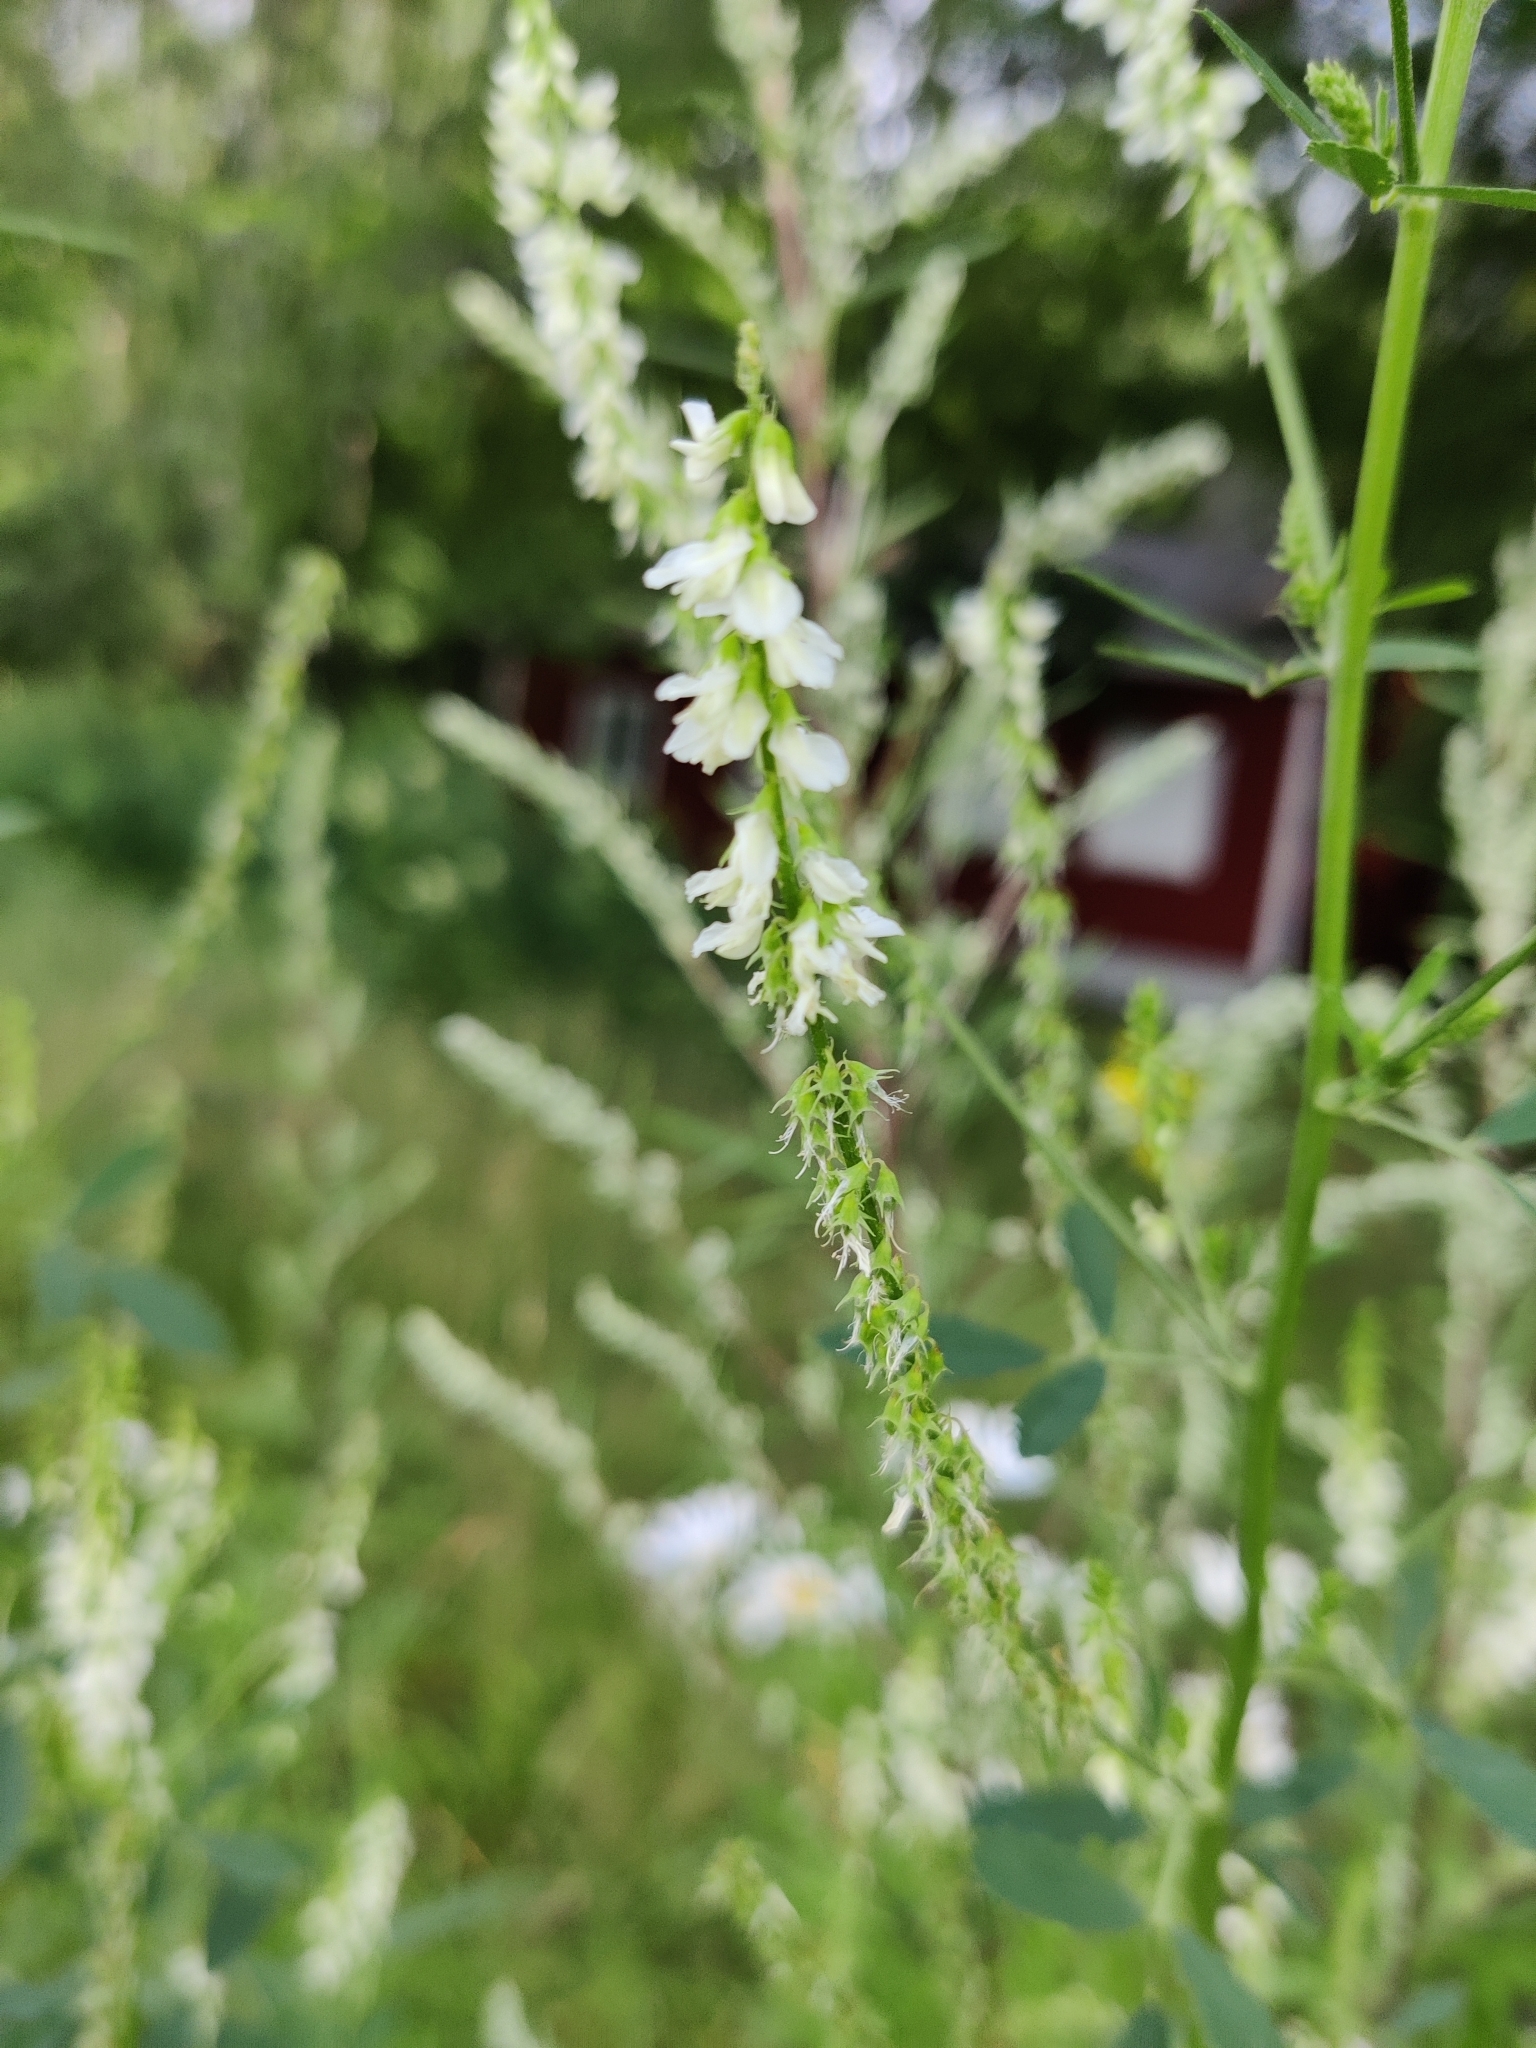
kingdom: Plantae
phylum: Tracheophyta
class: Magnoliopsida
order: Fabales
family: Fabaceae
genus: Melilotus
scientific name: Melilotus albus
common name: White melilot
